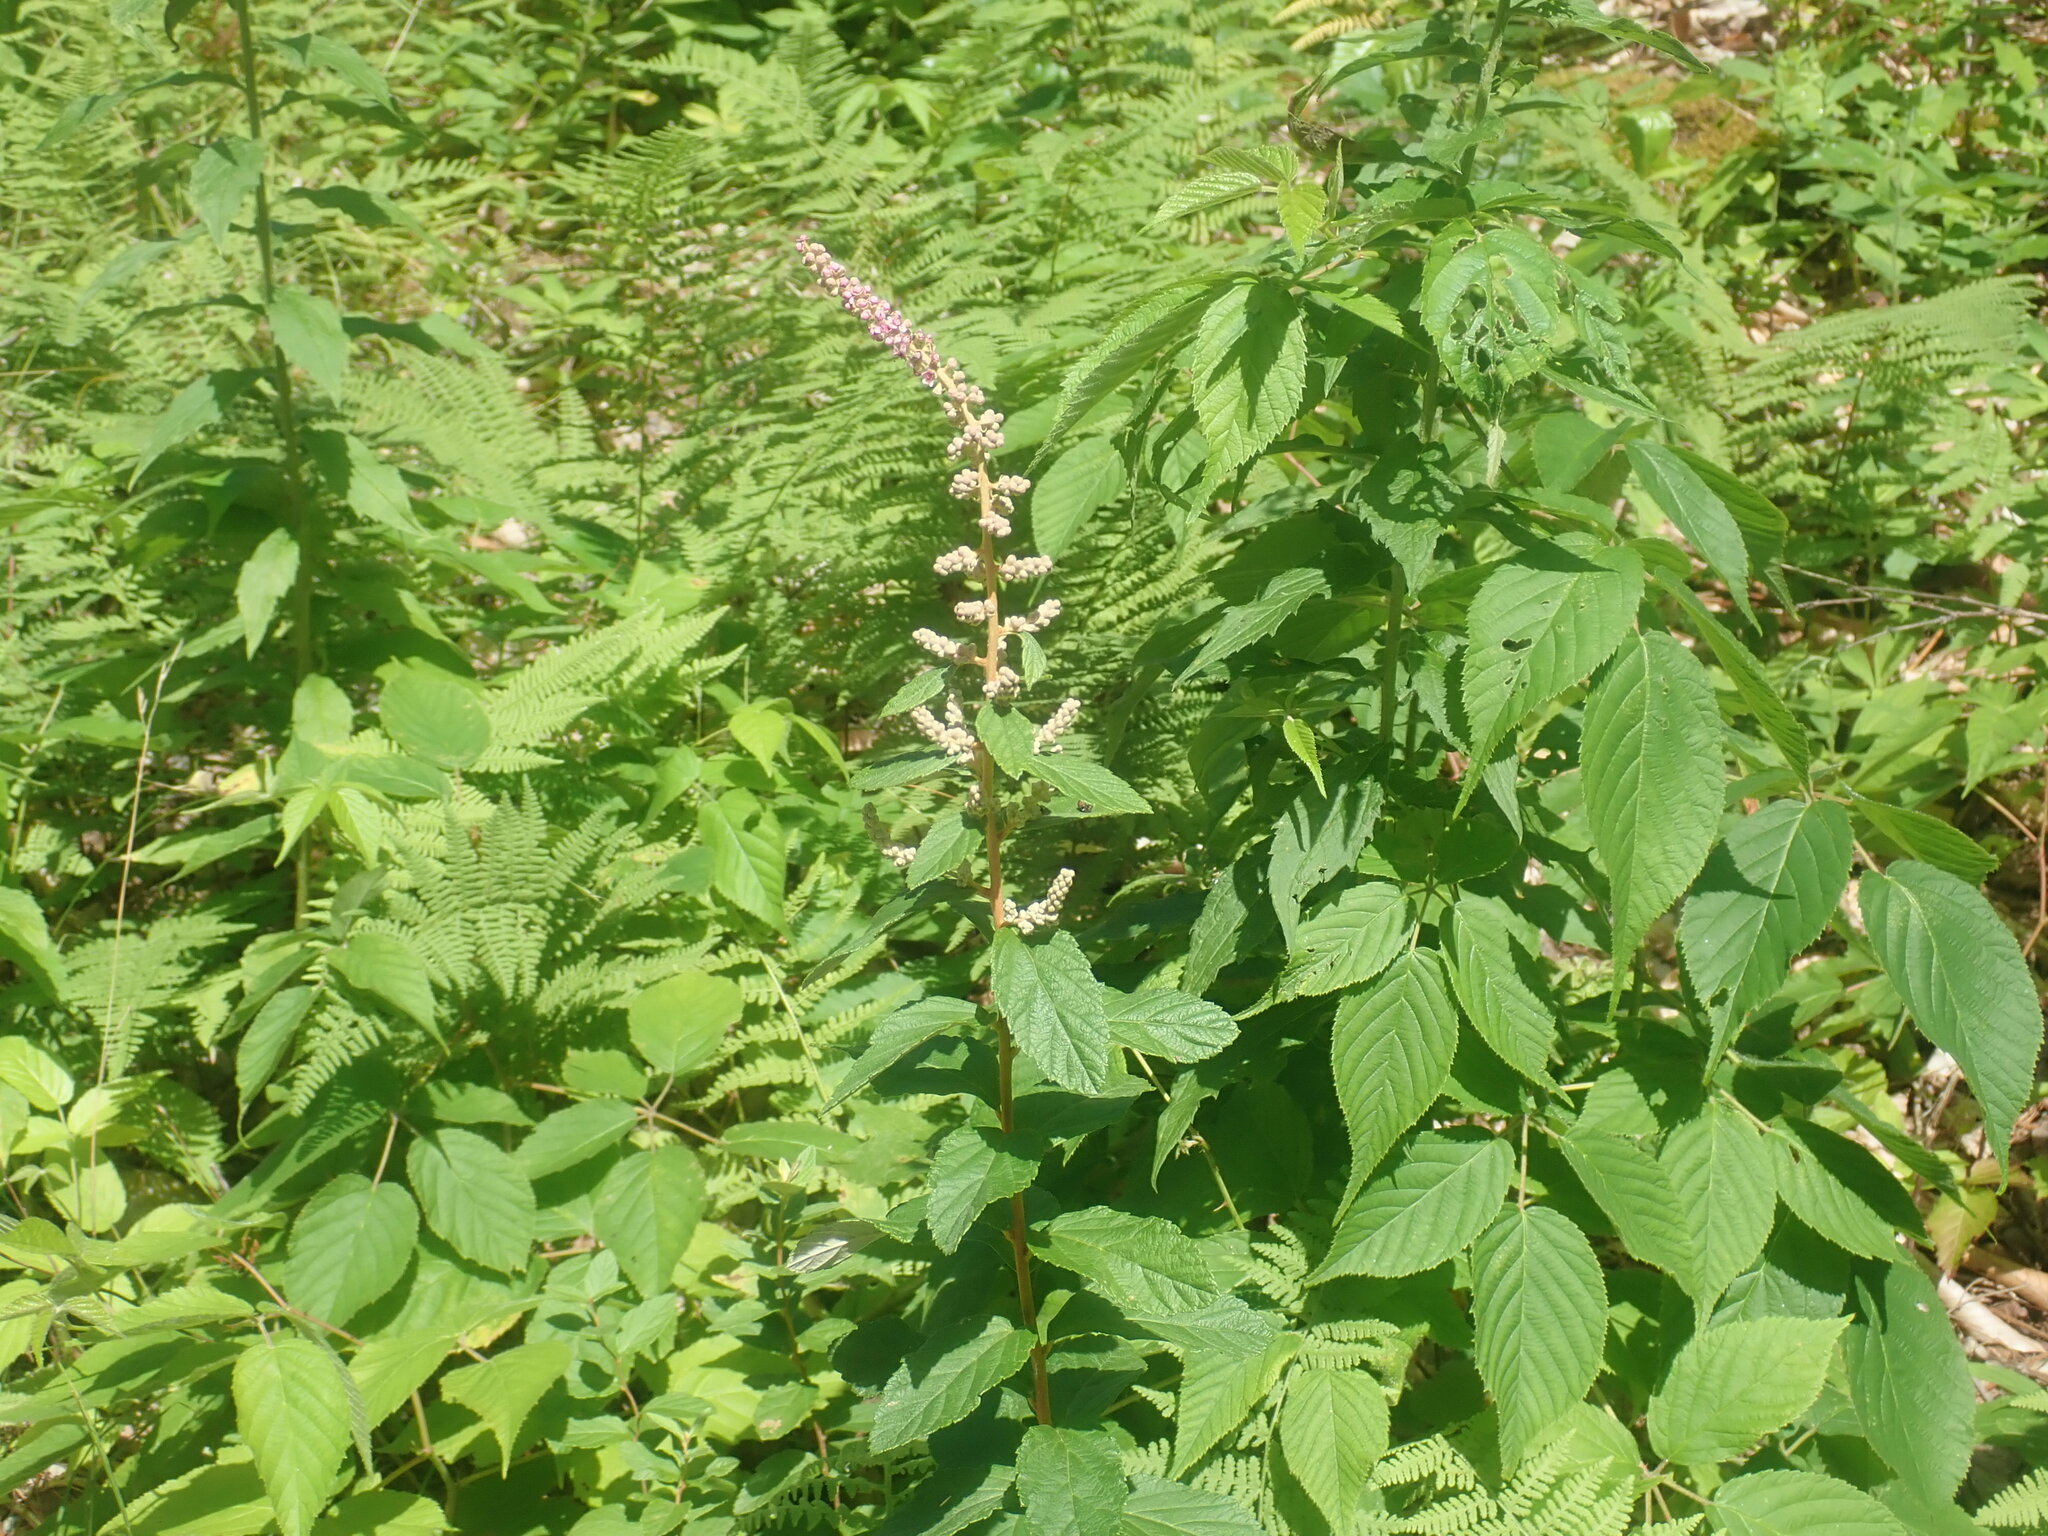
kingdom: Plantae
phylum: Tracheophyta
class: Magnoliopsida
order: Rosales
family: Rosaceae
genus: Spiraea
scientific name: Spiraea tomentosa
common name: Hardhack
